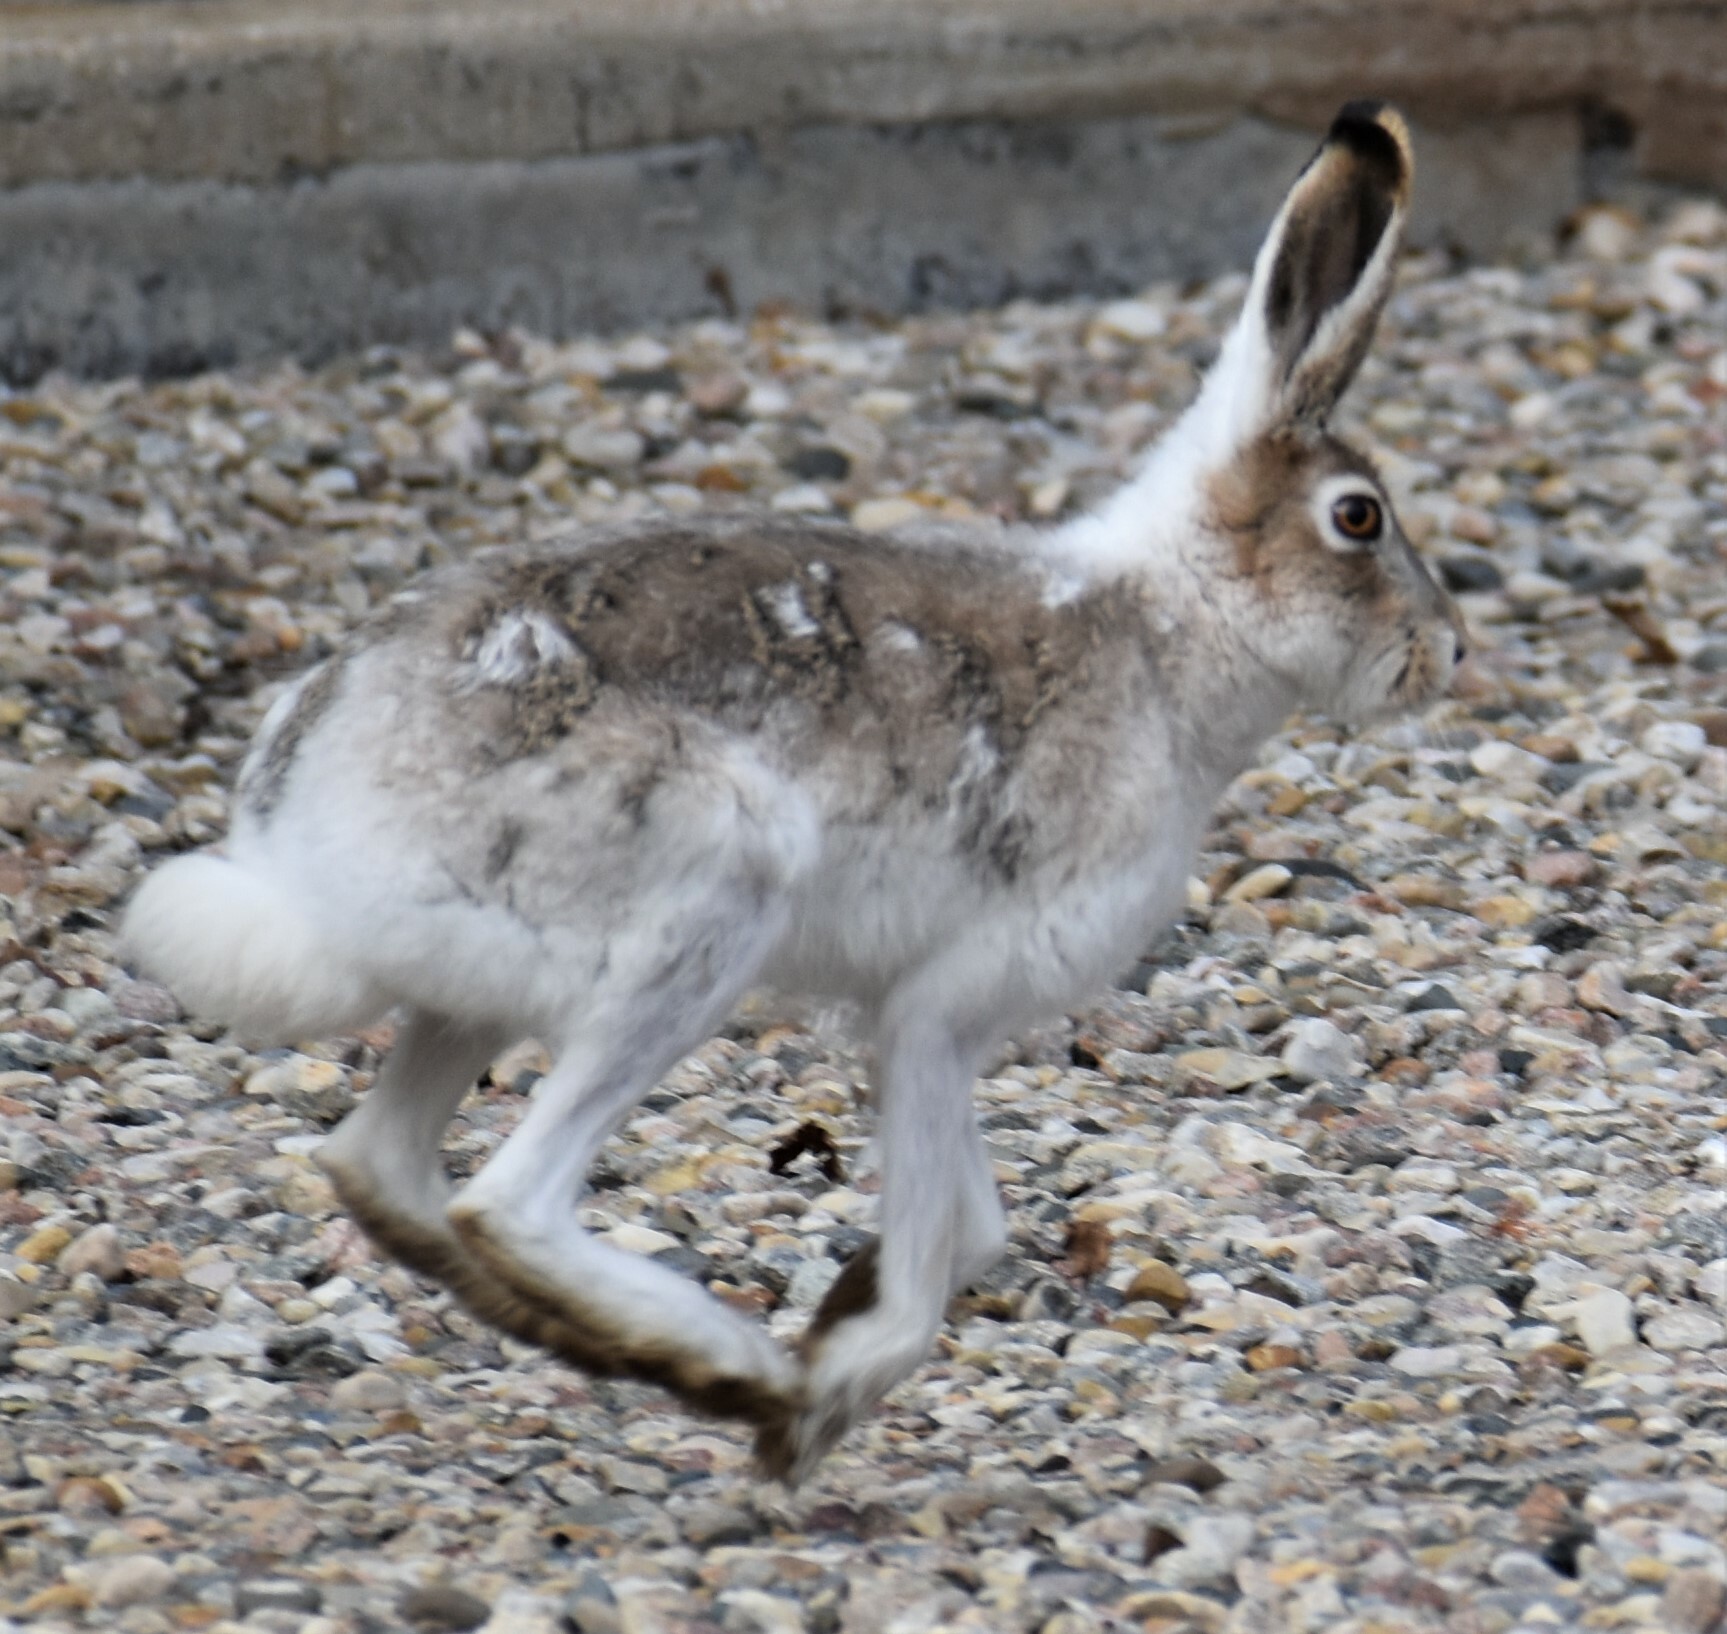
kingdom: Animalia
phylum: Chordata
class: Mammalia
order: Lagomorpha
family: Leporidae
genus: Lepus
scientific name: Lepus townsendii
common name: White-tailed jackrabbit
